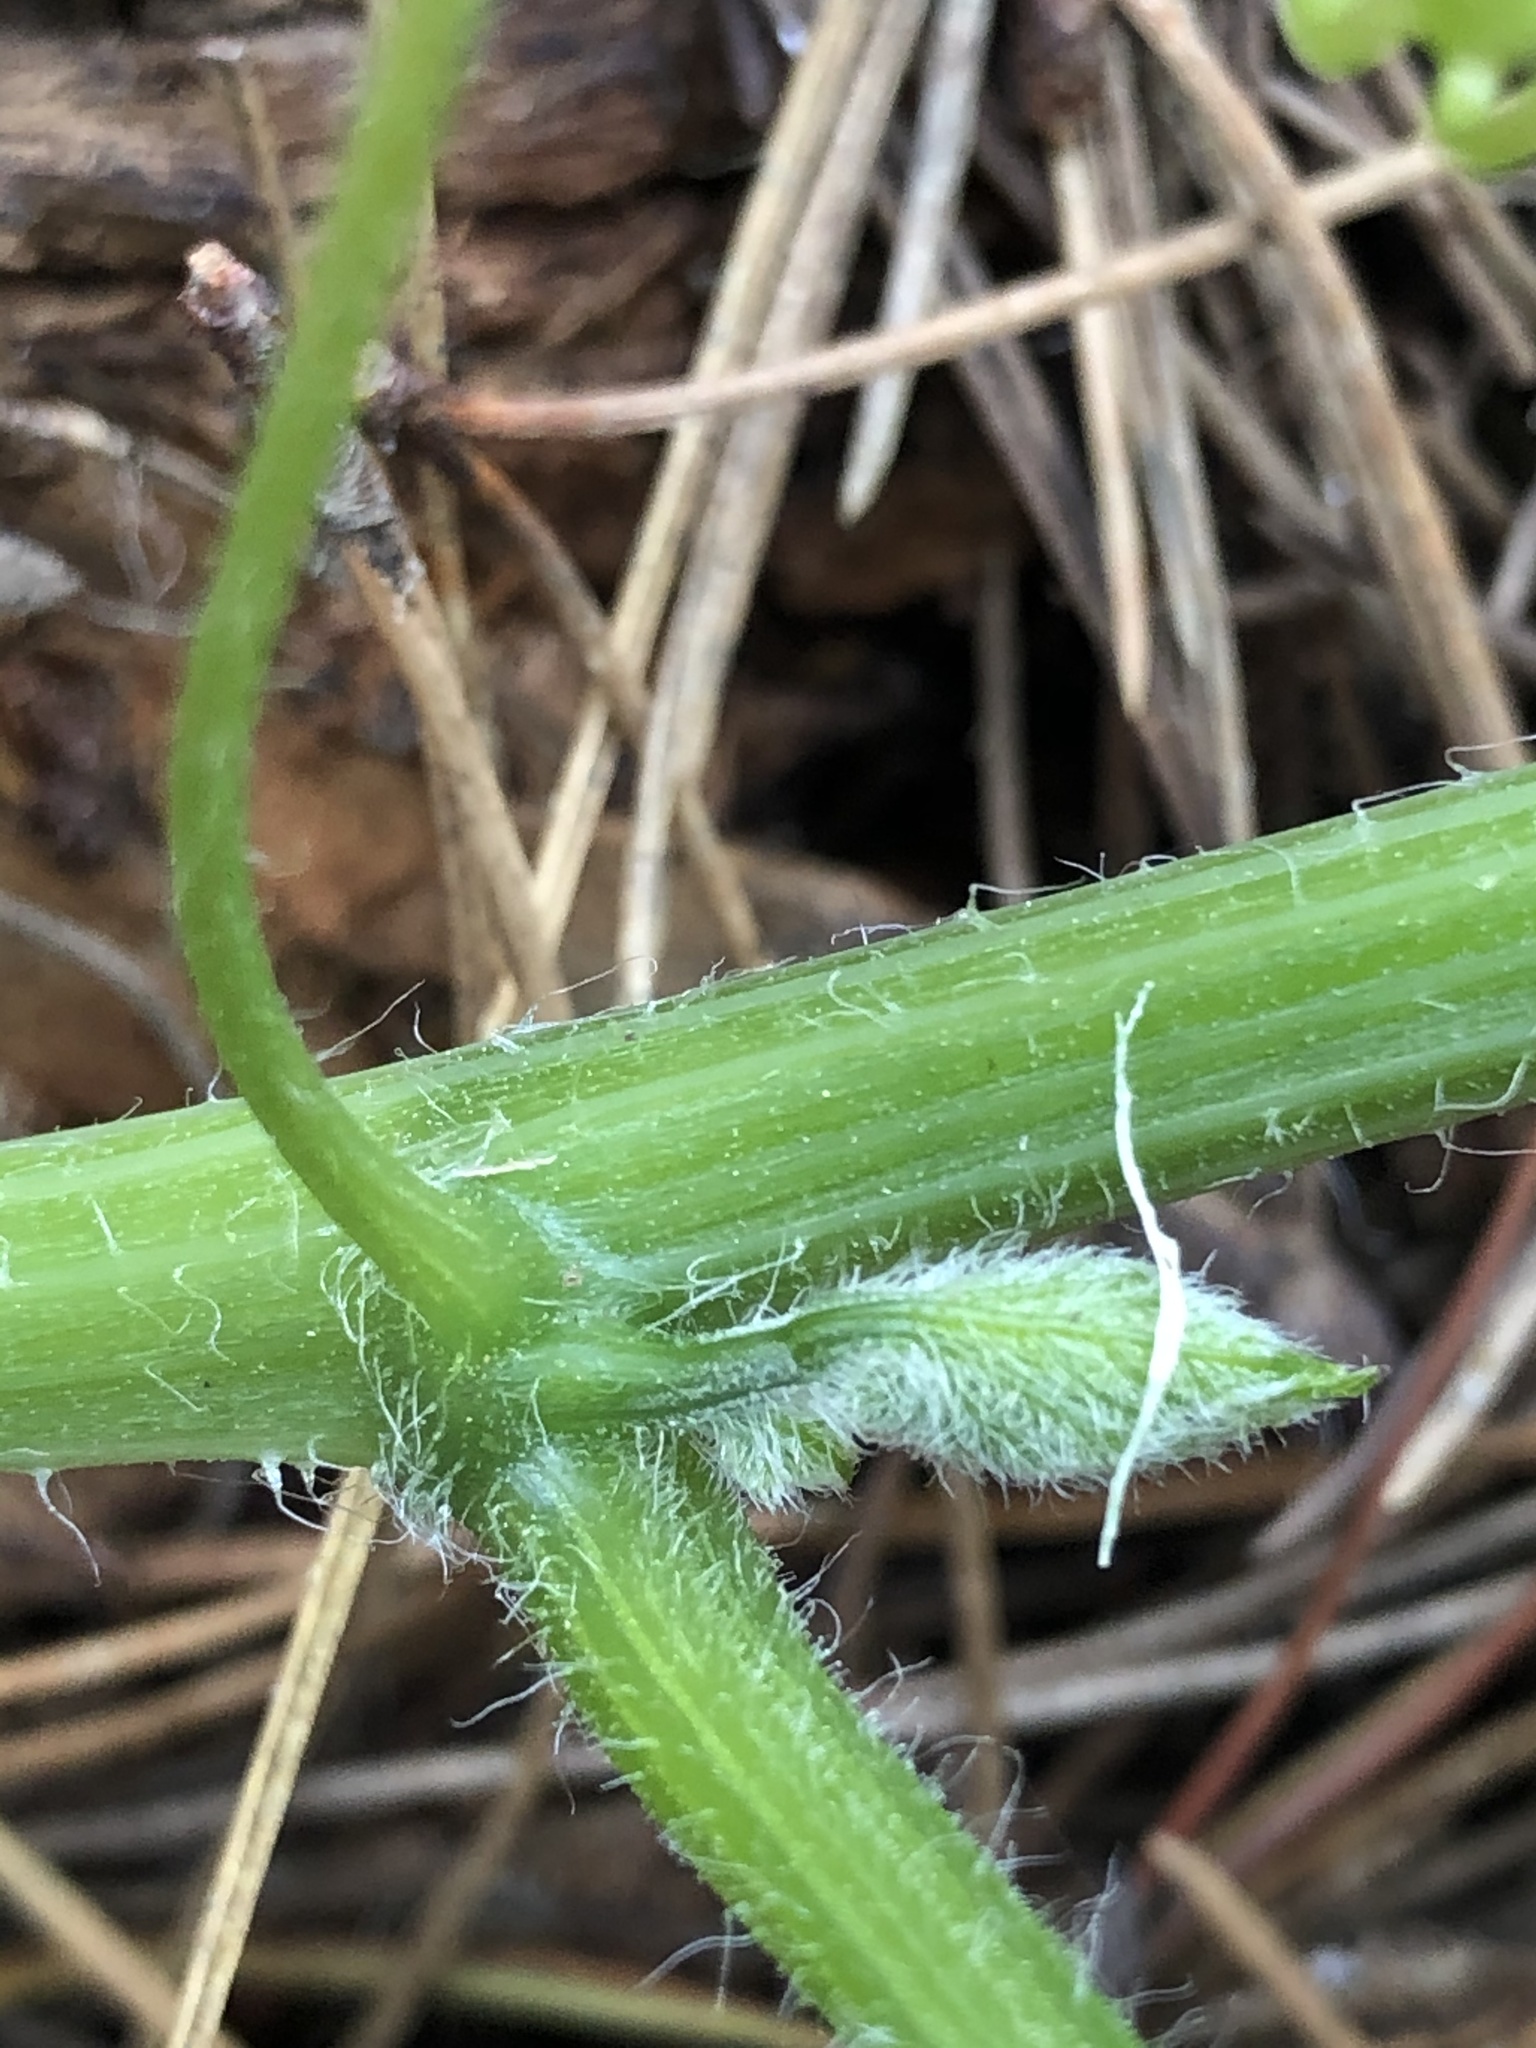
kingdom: Plantae
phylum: Tracheophyta
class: Magnoliopsida
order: Cucurbitales
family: Cucurbitaceae
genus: Marah
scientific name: Marah oregana
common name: Coastal manroot
